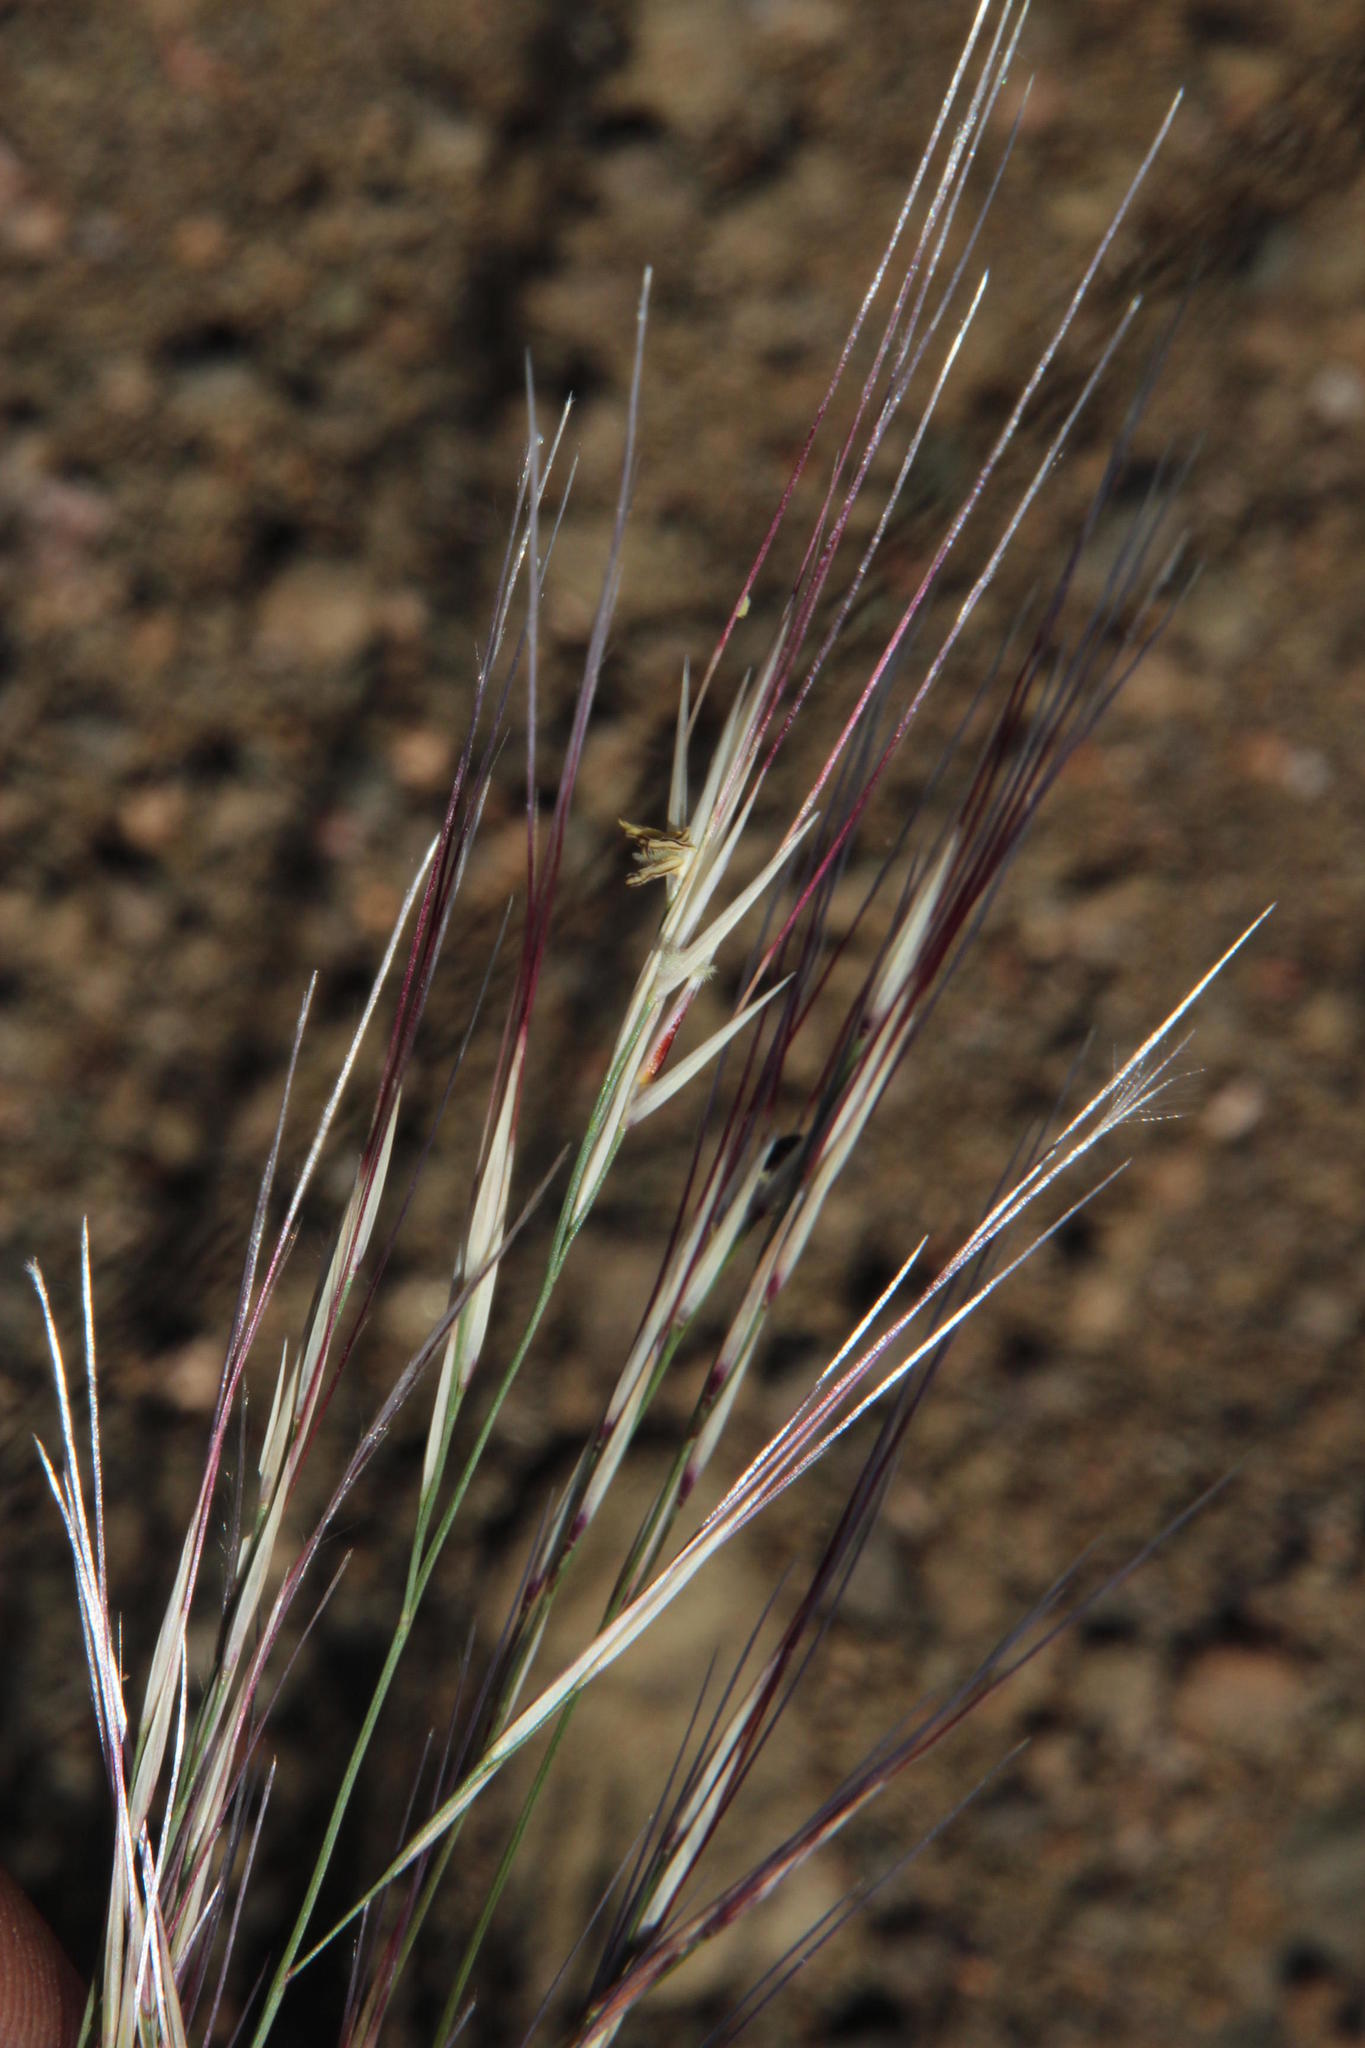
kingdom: Plantae
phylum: Tracheophyta
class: Liliopsida
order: Poales
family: Poaceae
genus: Stipagrostis
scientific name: Stipagrostis obtusa
